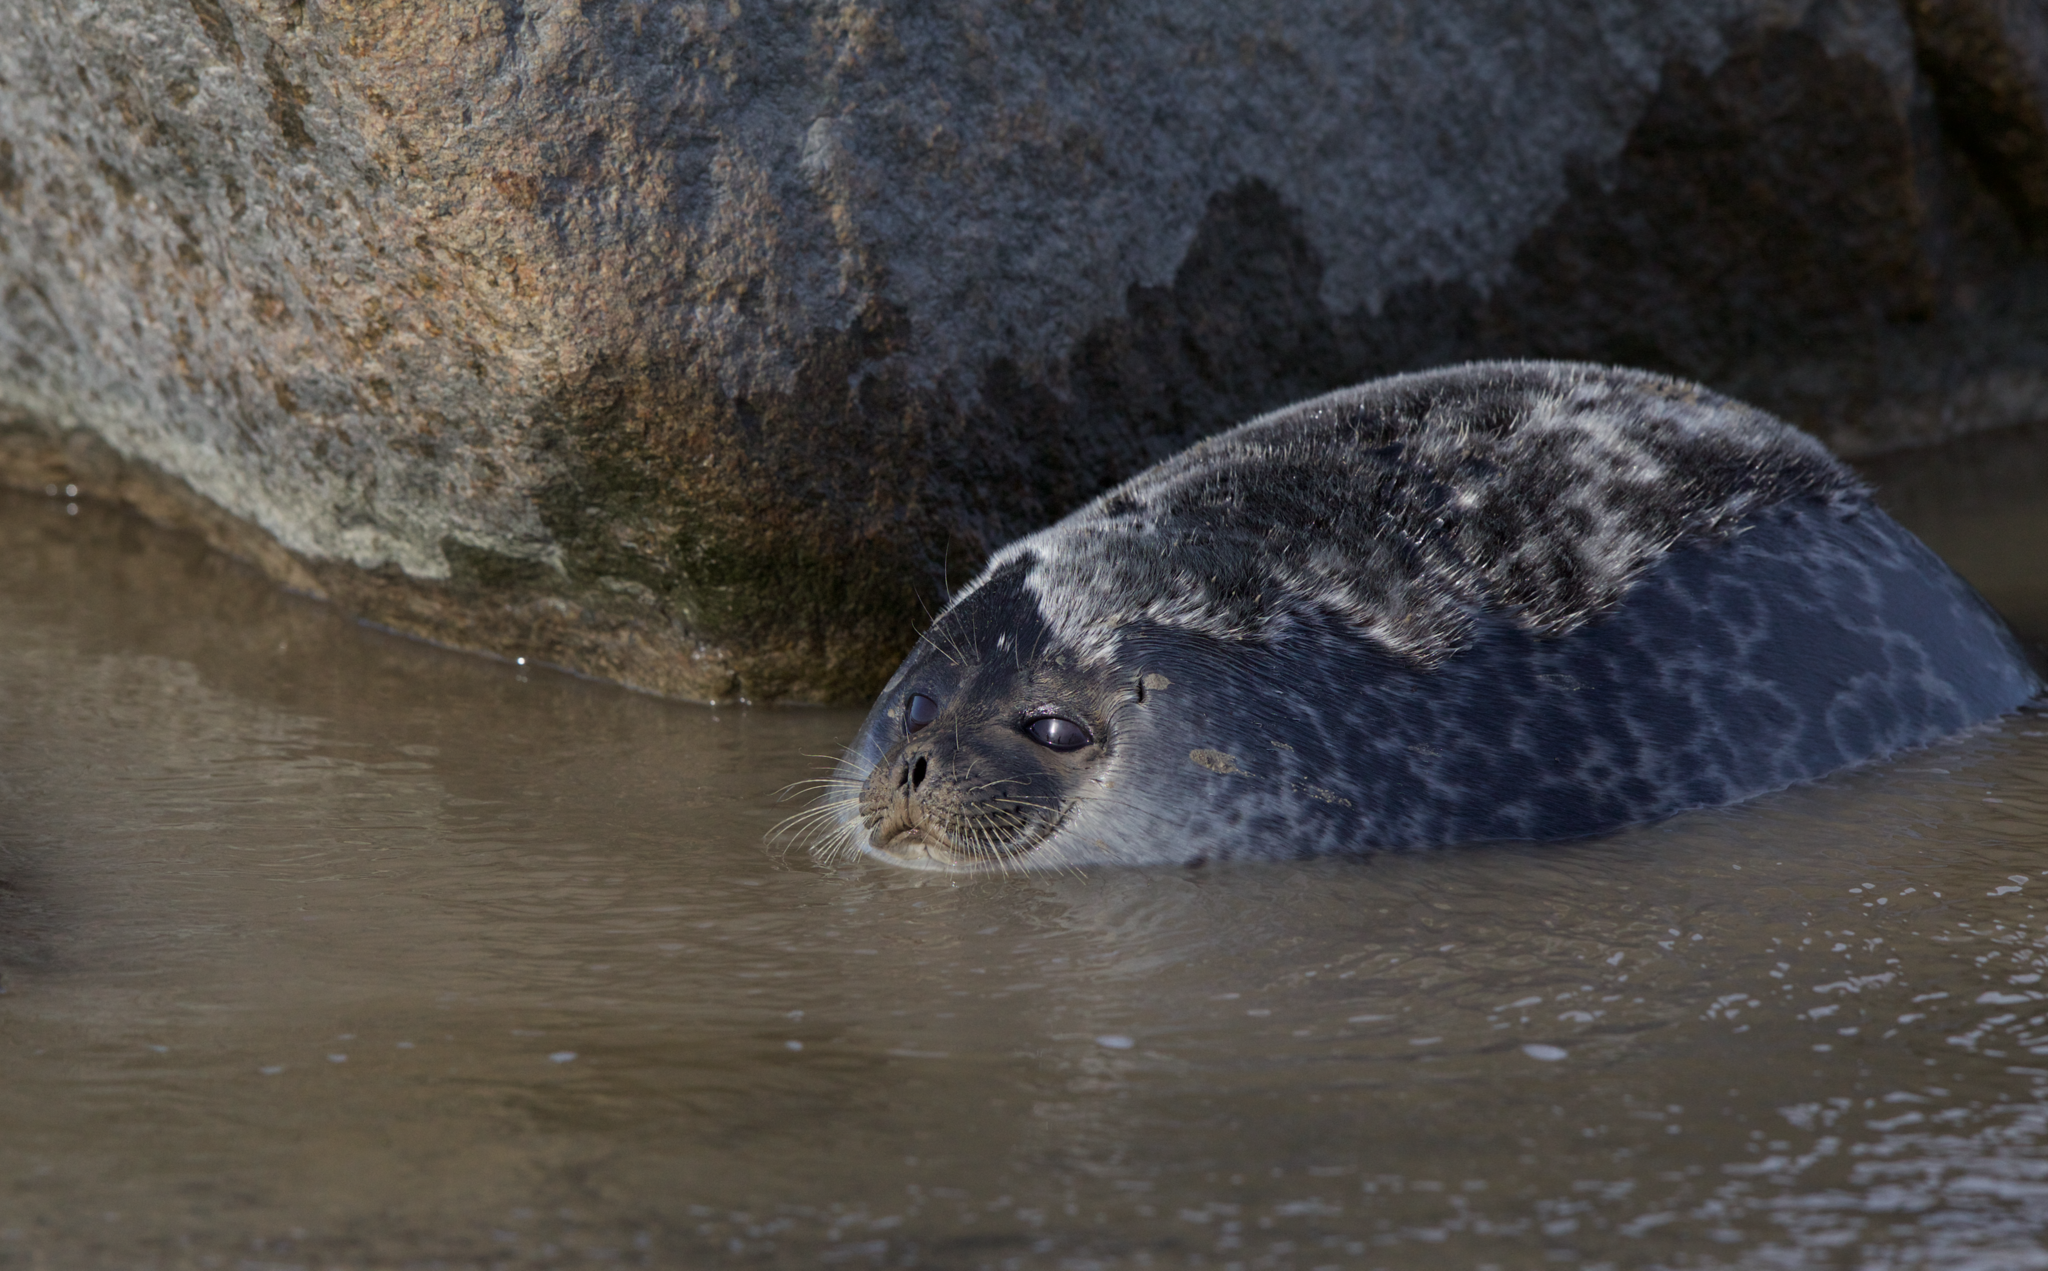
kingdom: Animalia
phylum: Chordata
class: Mammalia
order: Carnivora
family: Phocidae
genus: Pusa
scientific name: Pusa hispida
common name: Ringed seal
